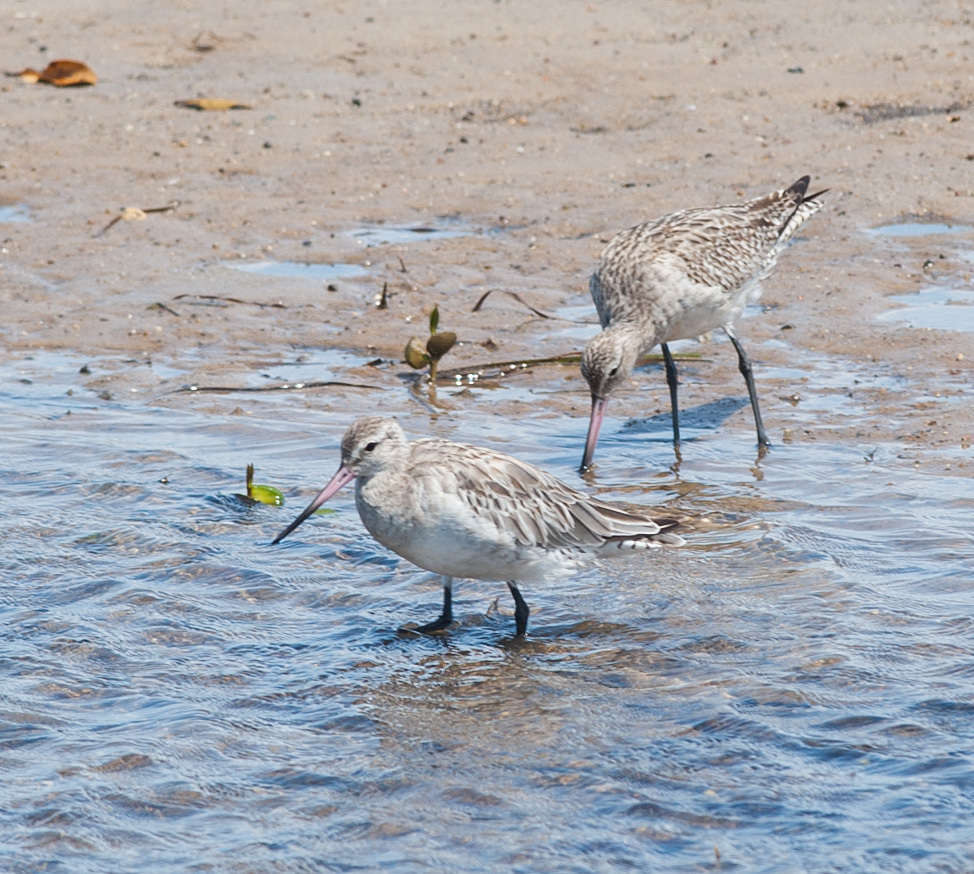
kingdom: Animalia
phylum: Chordata
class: Aves
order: Charadriiformes
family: Scolopacidae
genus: Limosa
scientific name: Limosa lapponica
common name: Bar-tailed godwit
